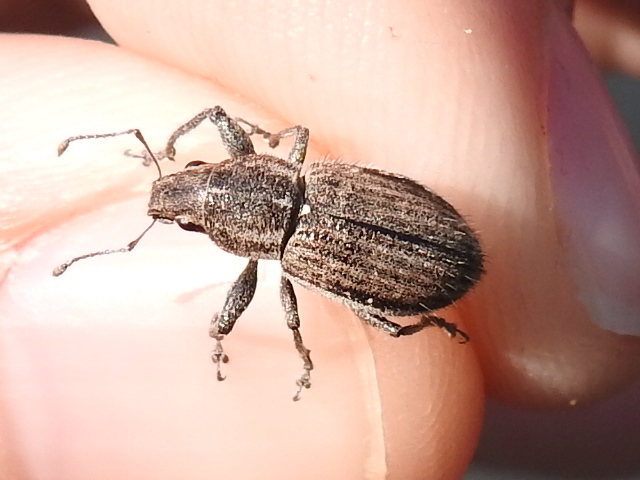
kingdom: Animalia
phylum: Arthropoda
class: Insecta
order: Coleoptera
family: Curculionidae
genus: Naupactus
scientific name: Naupactus leucoloma
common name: Whitefringed beetle
